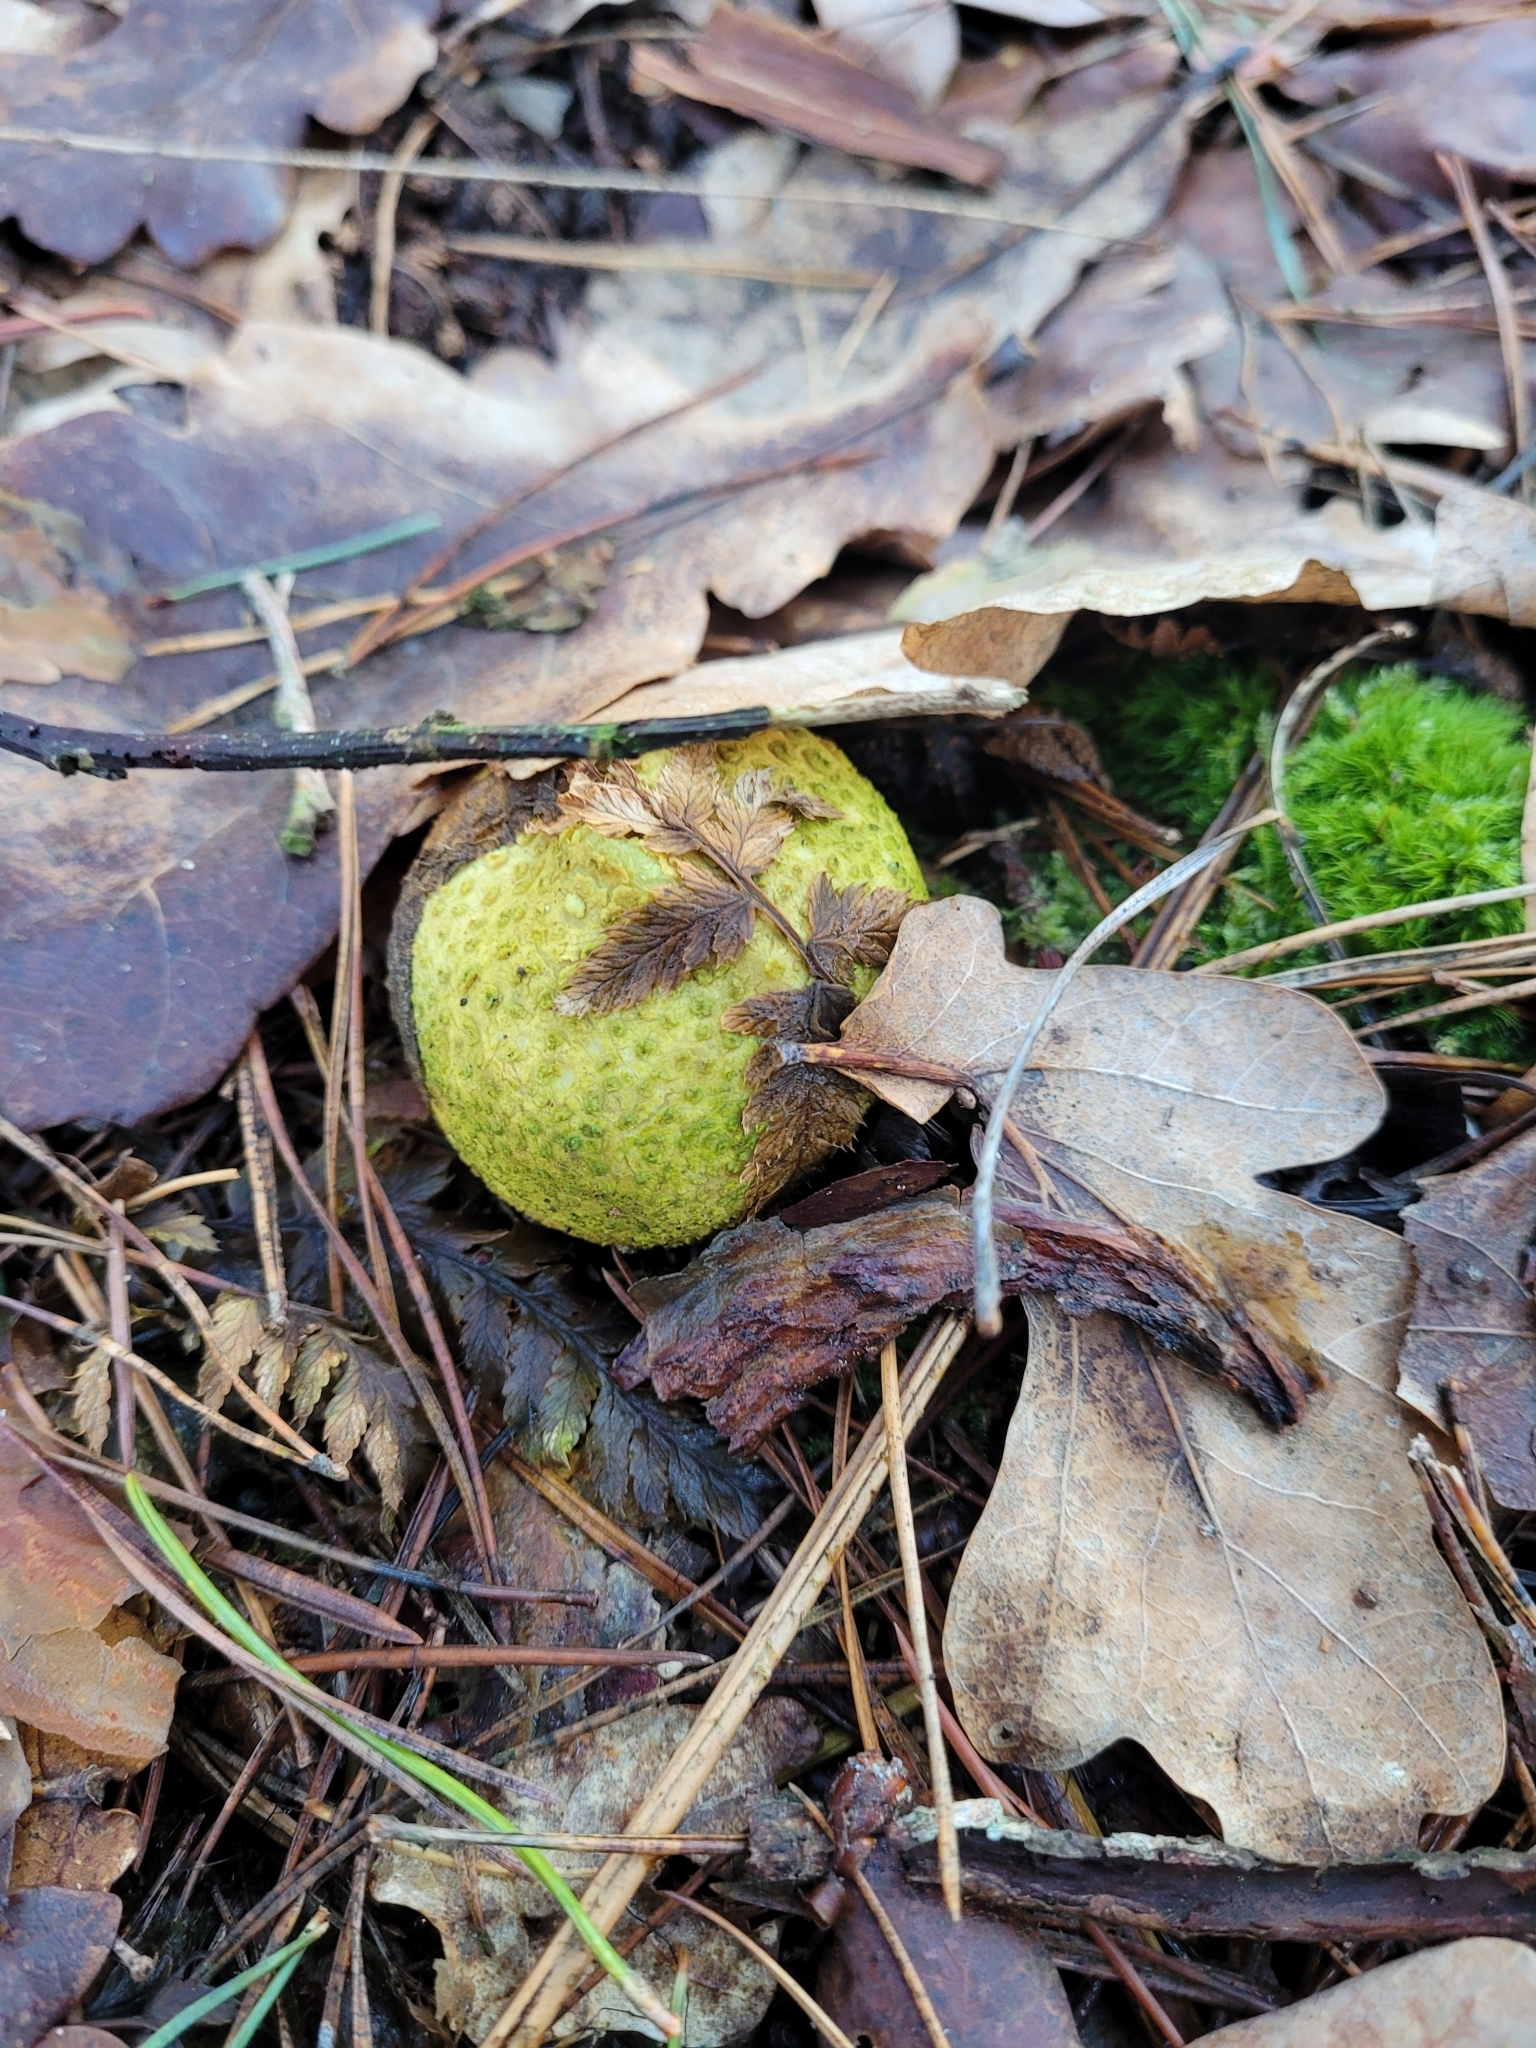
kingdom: Fungi
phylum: Basidiomycota
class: Agaricomycetes
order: Boletales
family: Sclerodermataceae
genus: Scleroderma
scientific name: Scleroderma citrinum
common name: Common earthball
